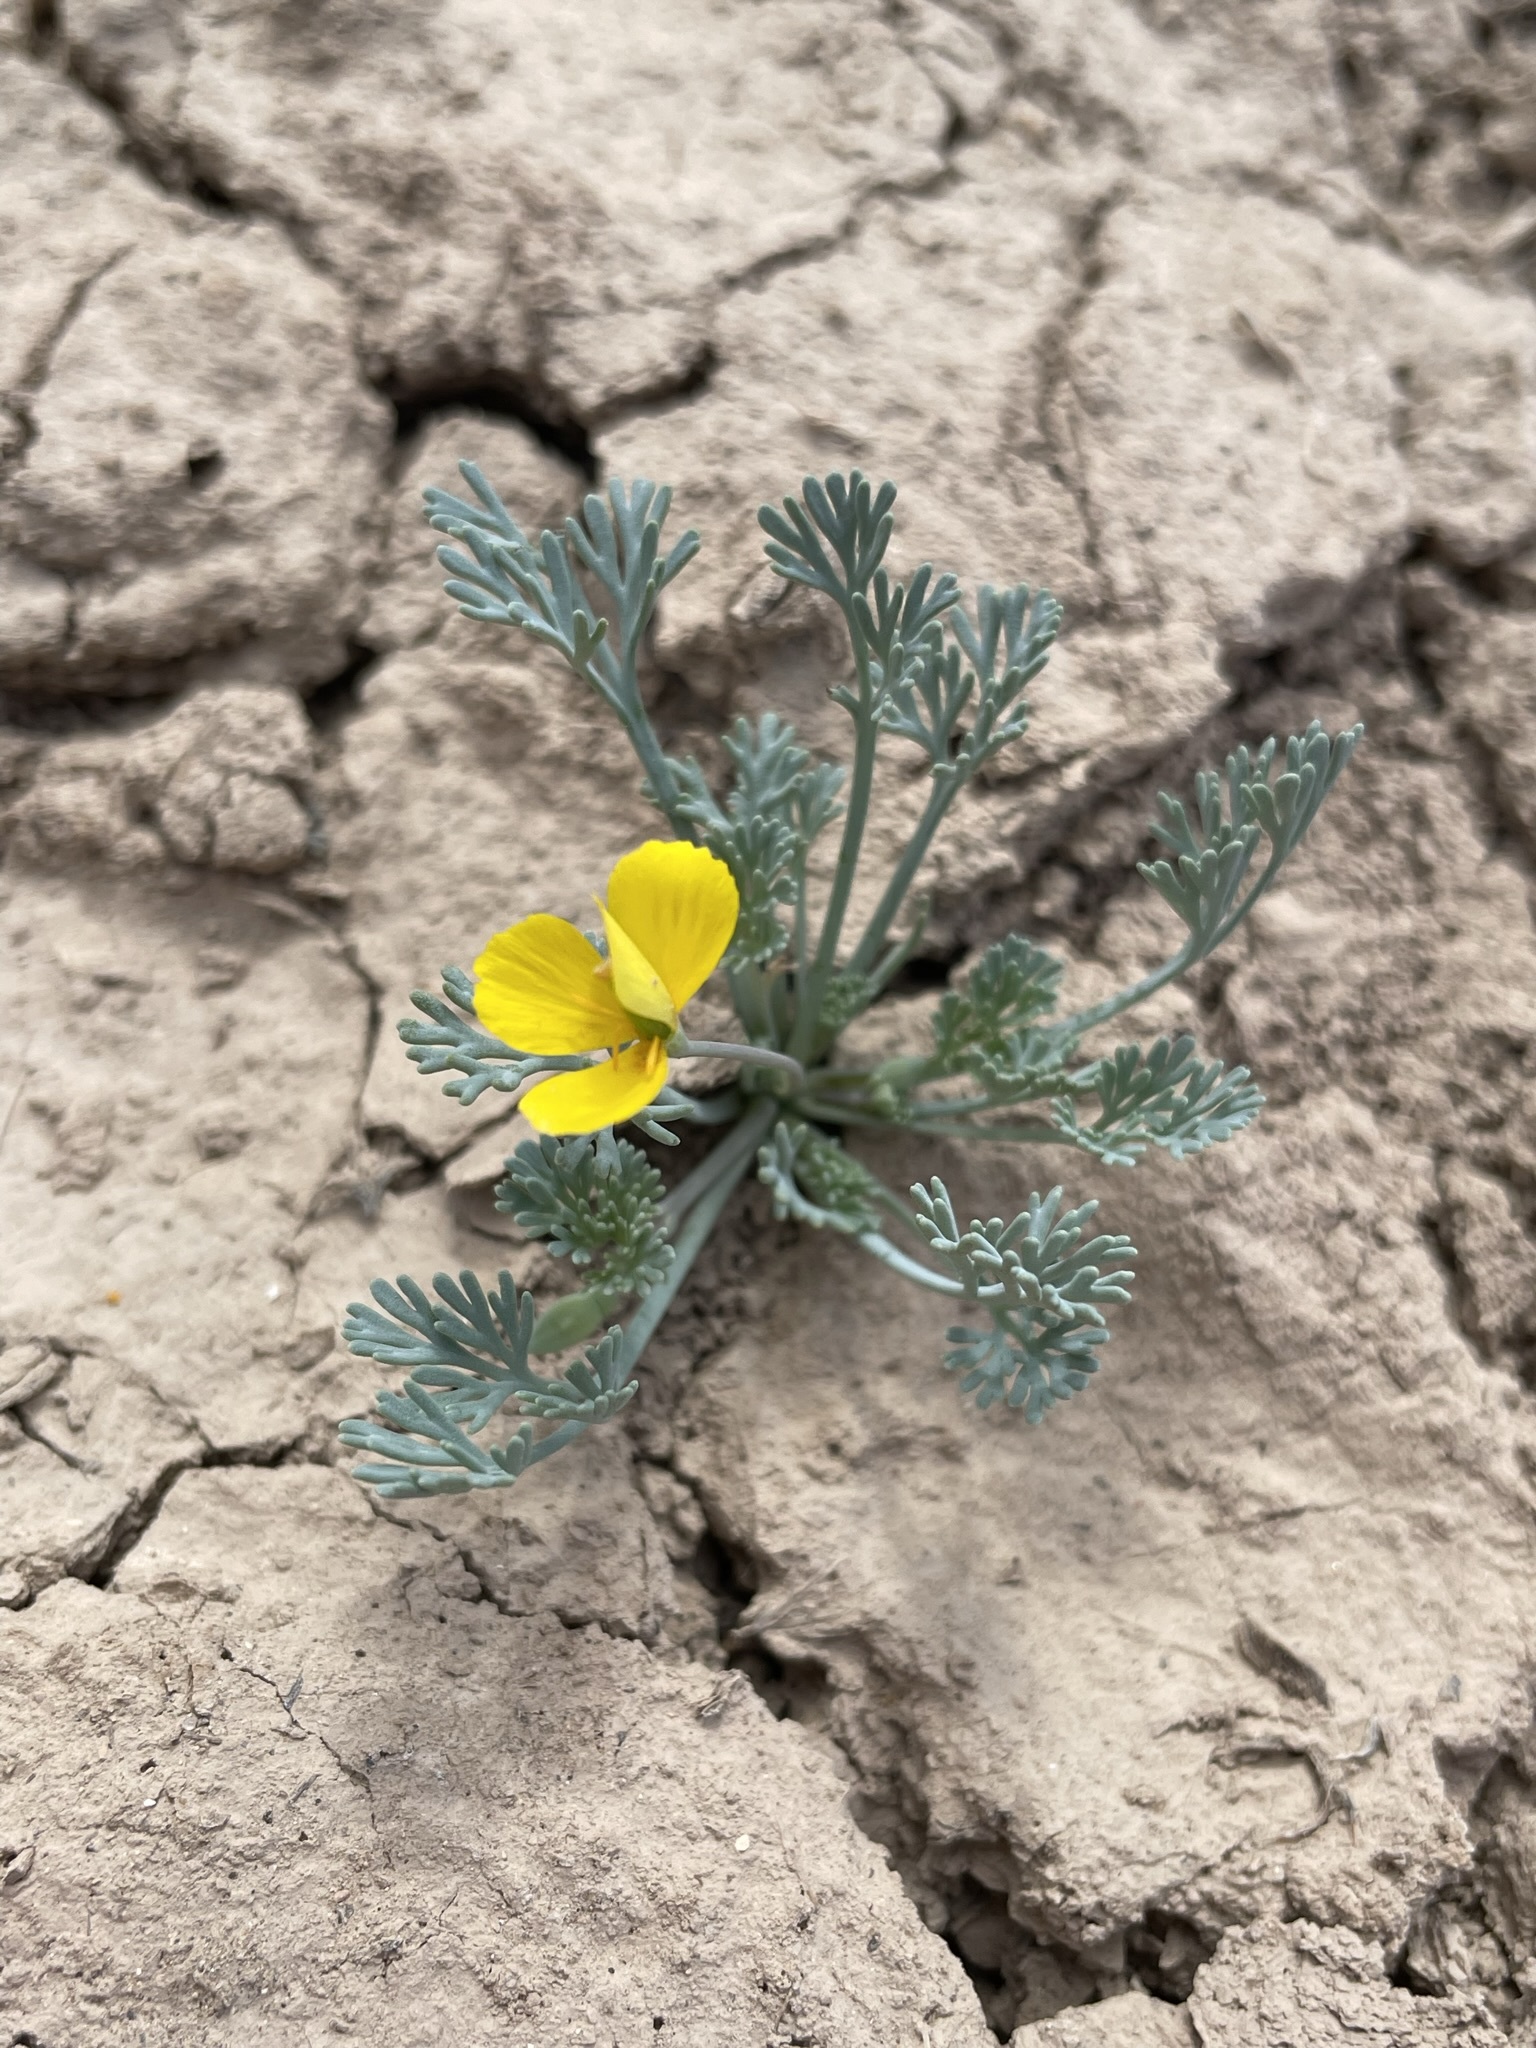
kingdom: Plantae
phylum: Tracheophyta
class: Magnoliopsida
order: Ranunculales
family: Papaveraceae
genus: Eschscholzia
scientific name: Eschscholzia minutiflora
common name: Small-flower california-poppy
